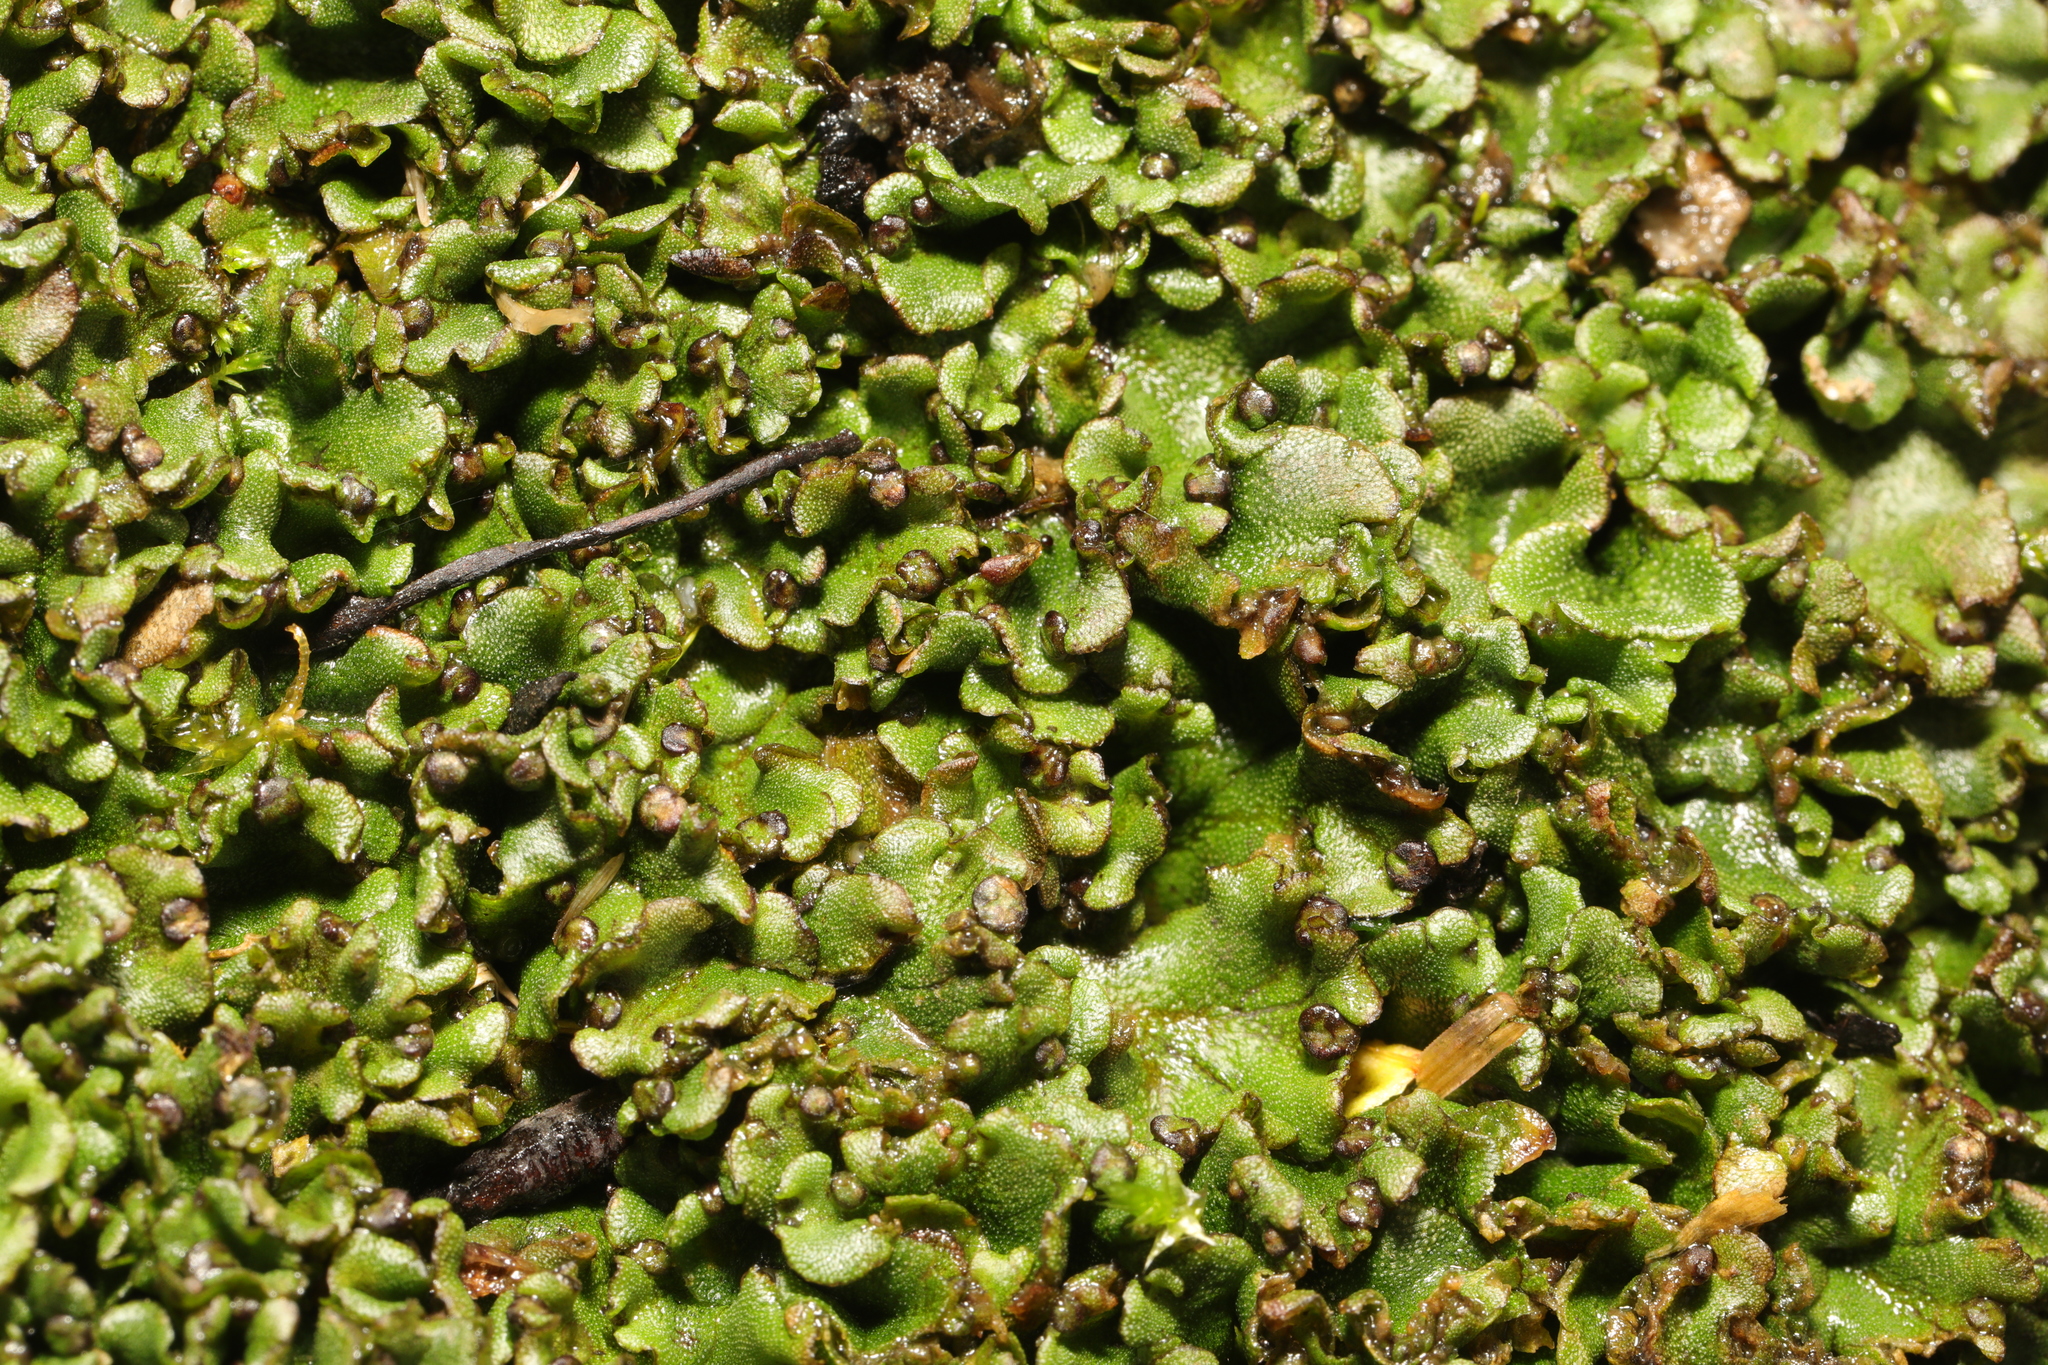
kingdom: Plantae
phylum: Marchantiophyta
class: Marchantiopsida
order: Marchantiales
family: Marchantiaceae
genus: Marchantia
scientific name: Marchantia polymorpha
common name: Common liverwort
